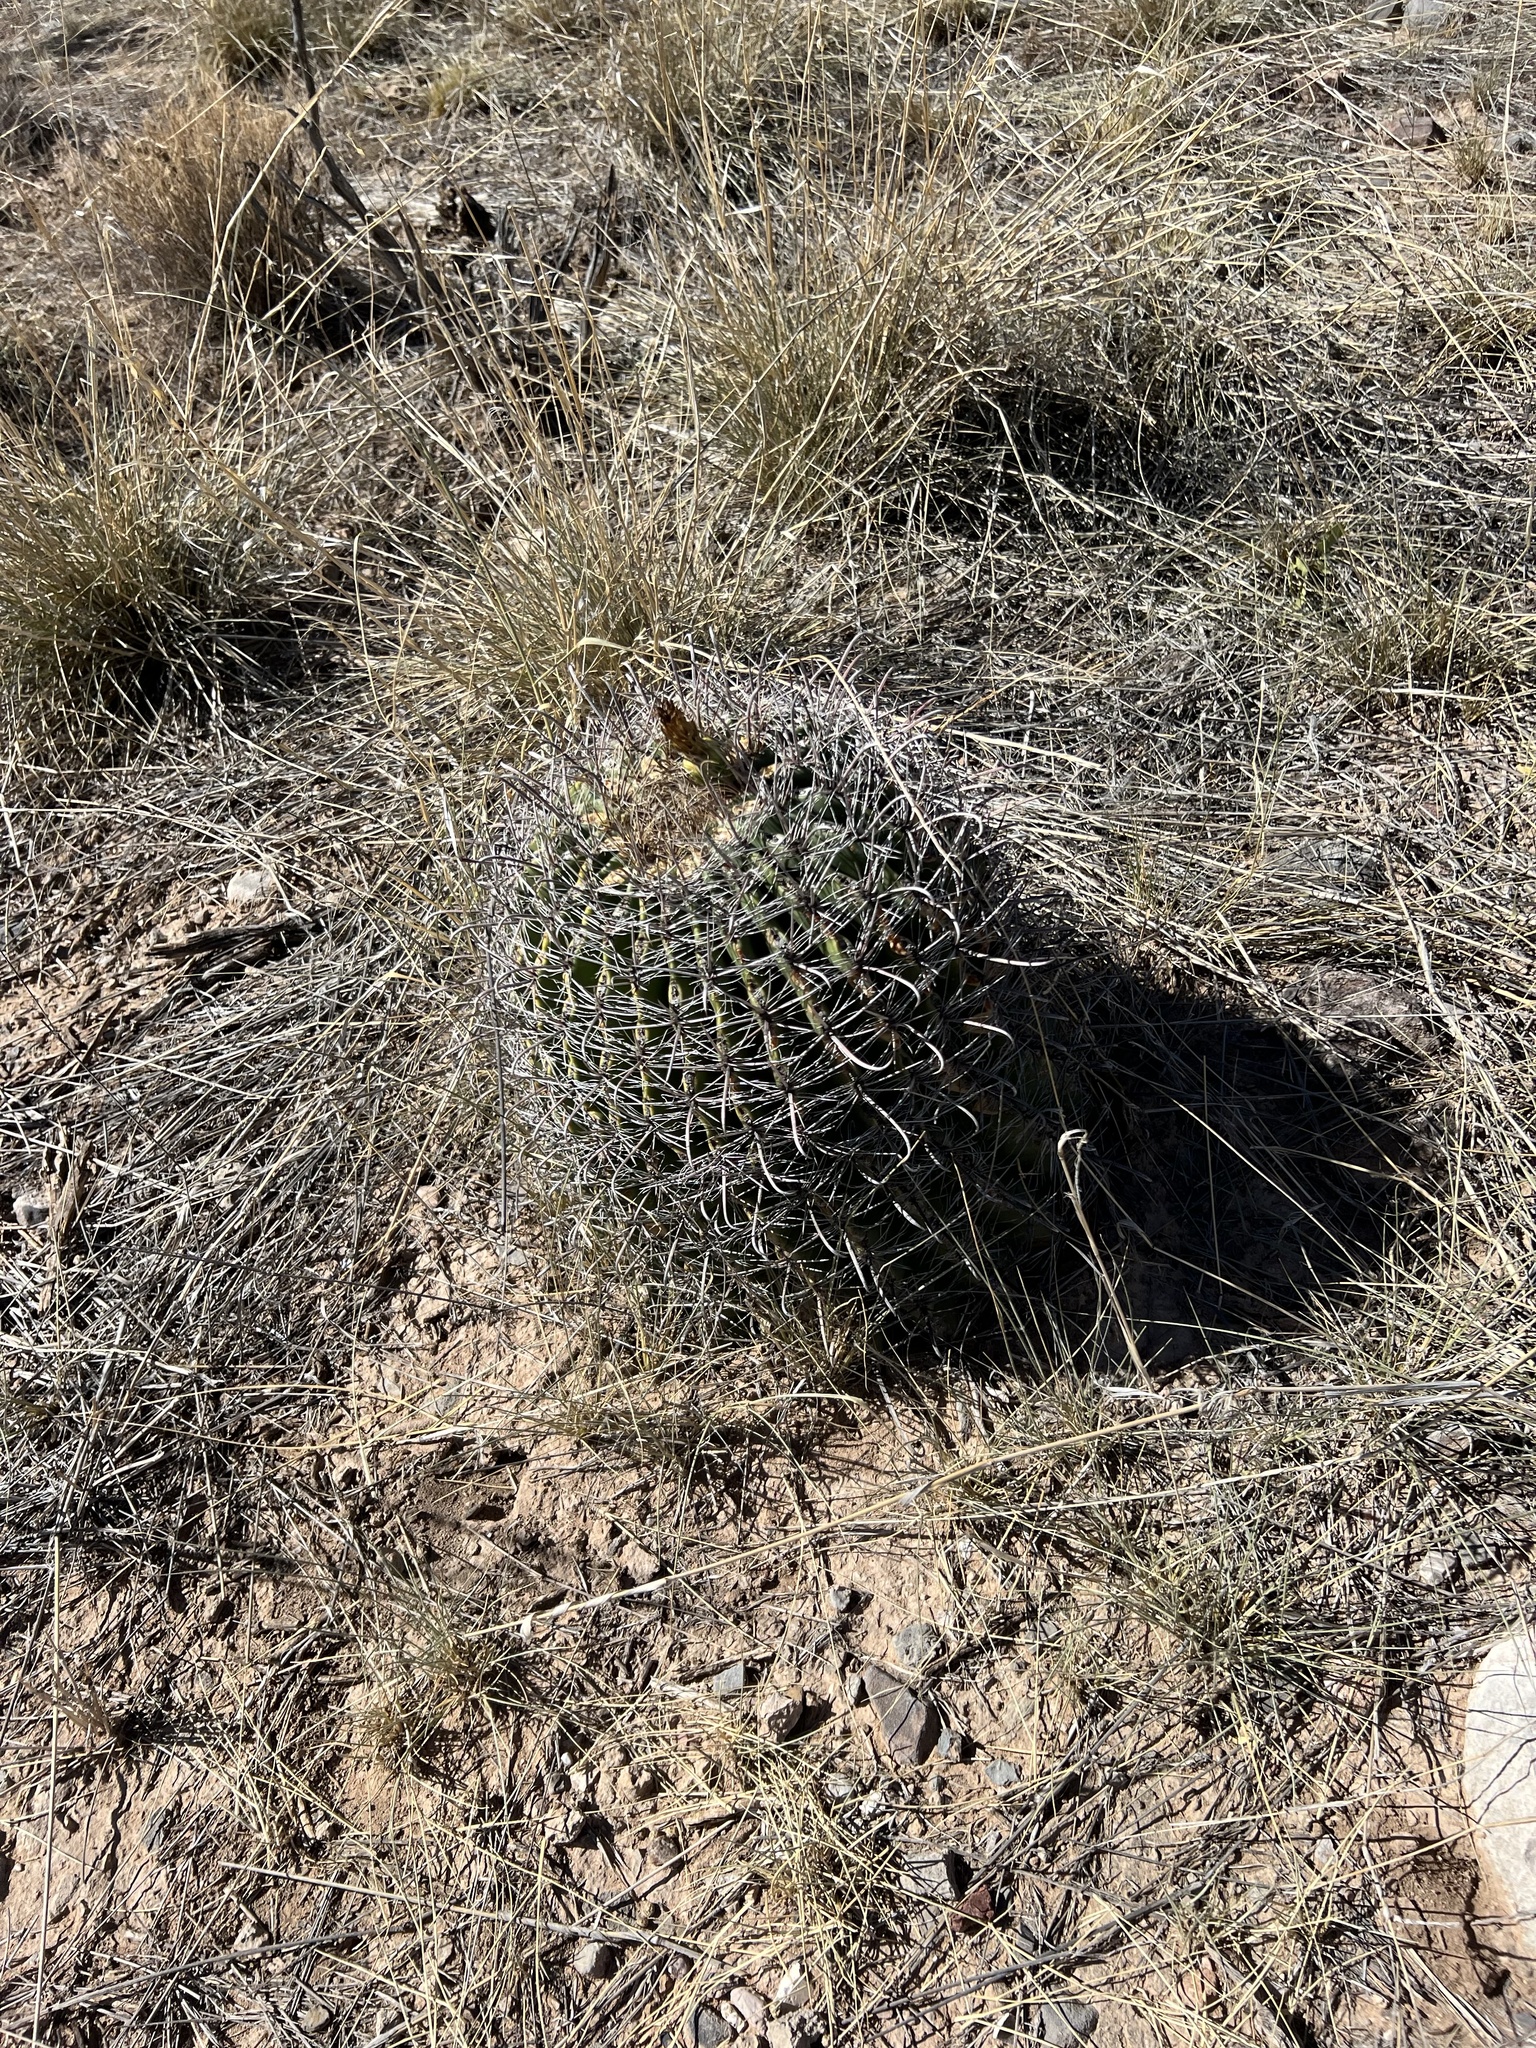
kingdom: Plantae
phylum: Tracheophyta
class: Magnoliopsida
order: Caryophyllales
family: Cactaceae
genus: Ferocactus
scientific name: Ferocactus wislizeni
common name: Candy barrel cactus
